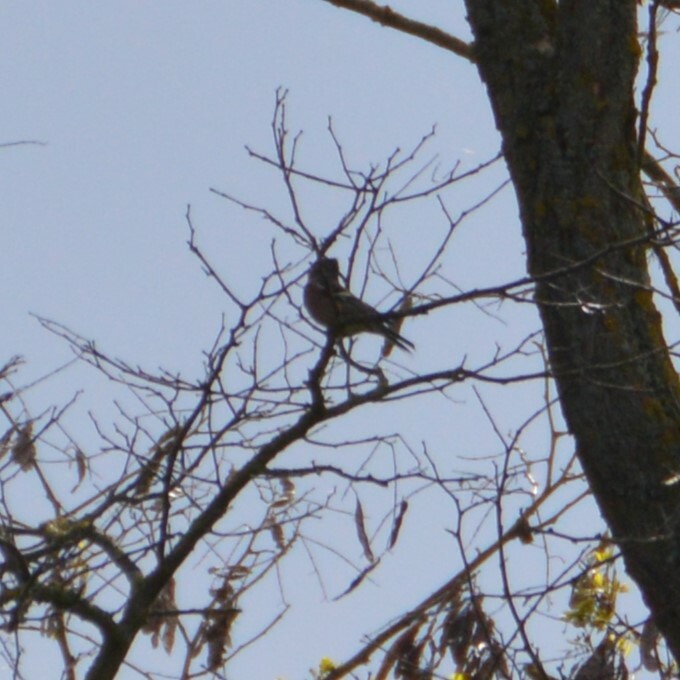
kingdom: Animalia
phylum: Chordata
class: Aves
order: Passeriformes
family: Fringillidae
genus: Fringilla
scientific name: Fringilla coelebs
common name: Common chaffinch
